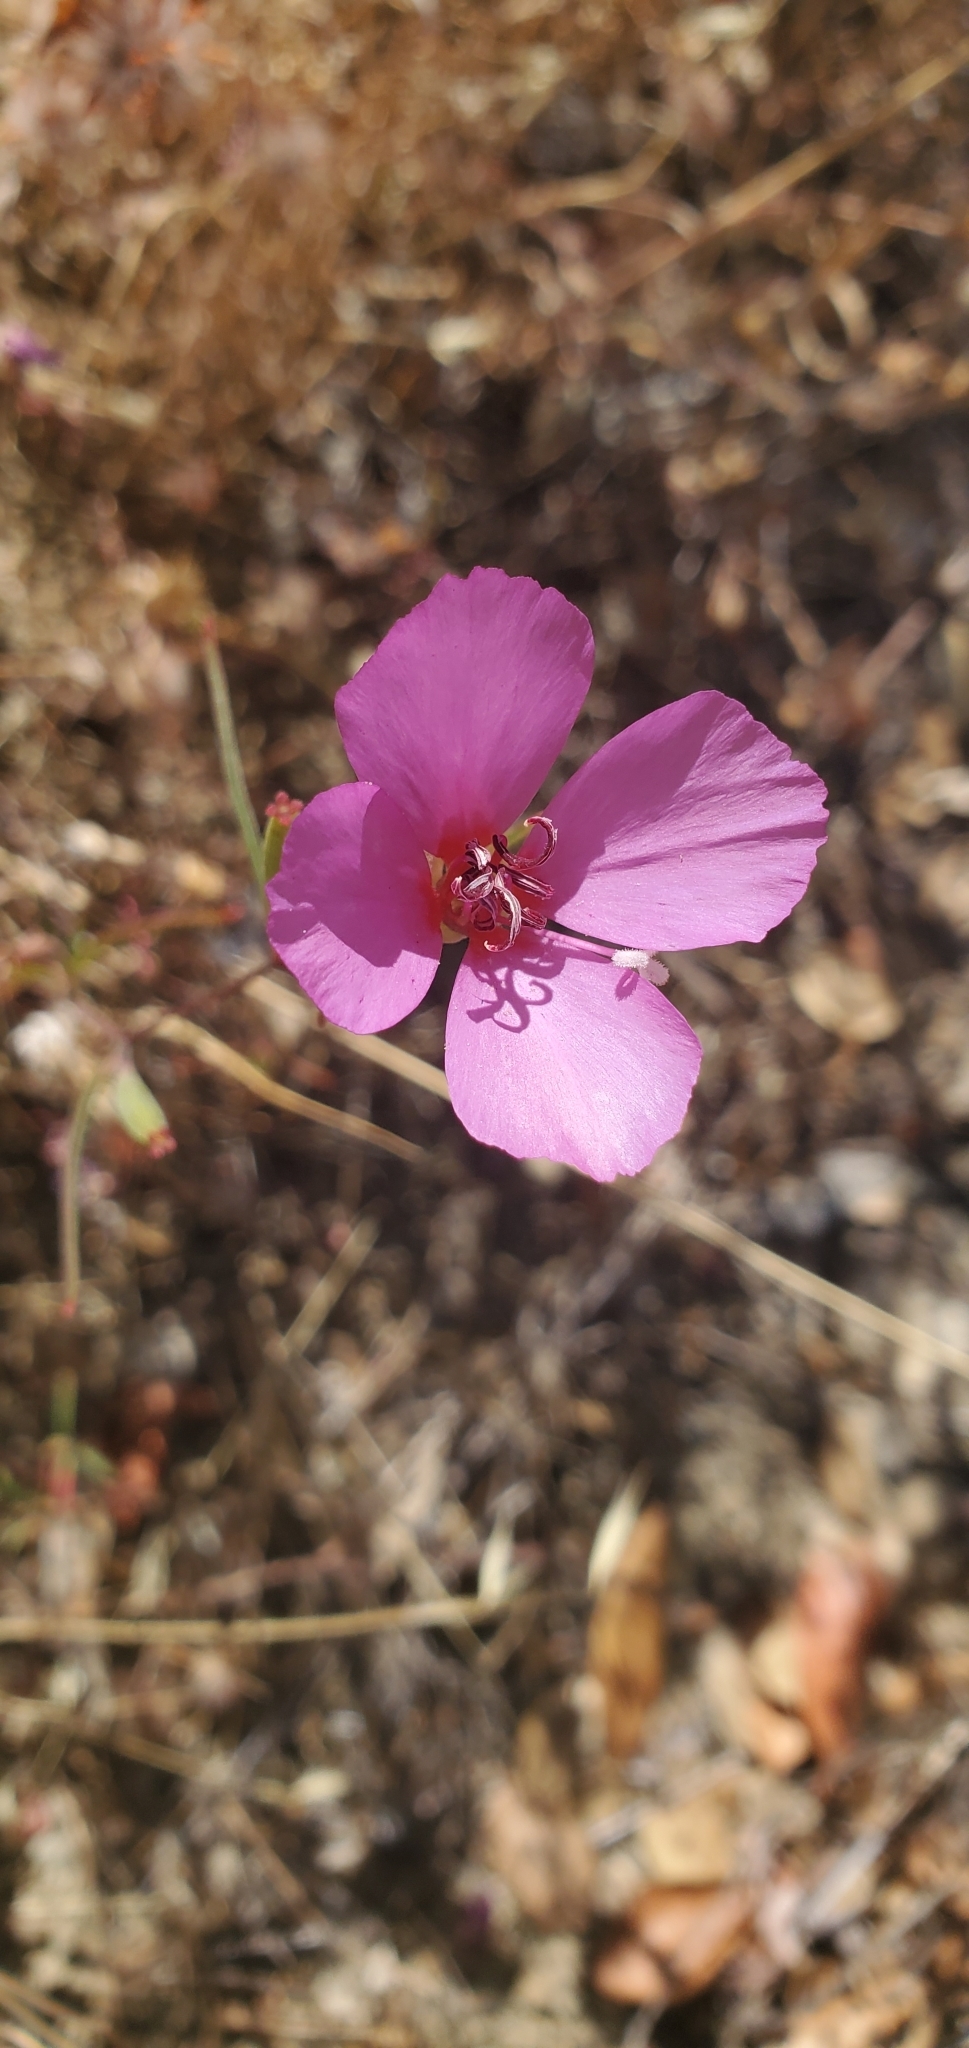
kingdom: Plantae
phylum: Tracheophyta
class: Magnoliopsida
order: Myrtales
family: Onagraceae
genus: Clarkia
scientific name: Clarkia rubicunda
